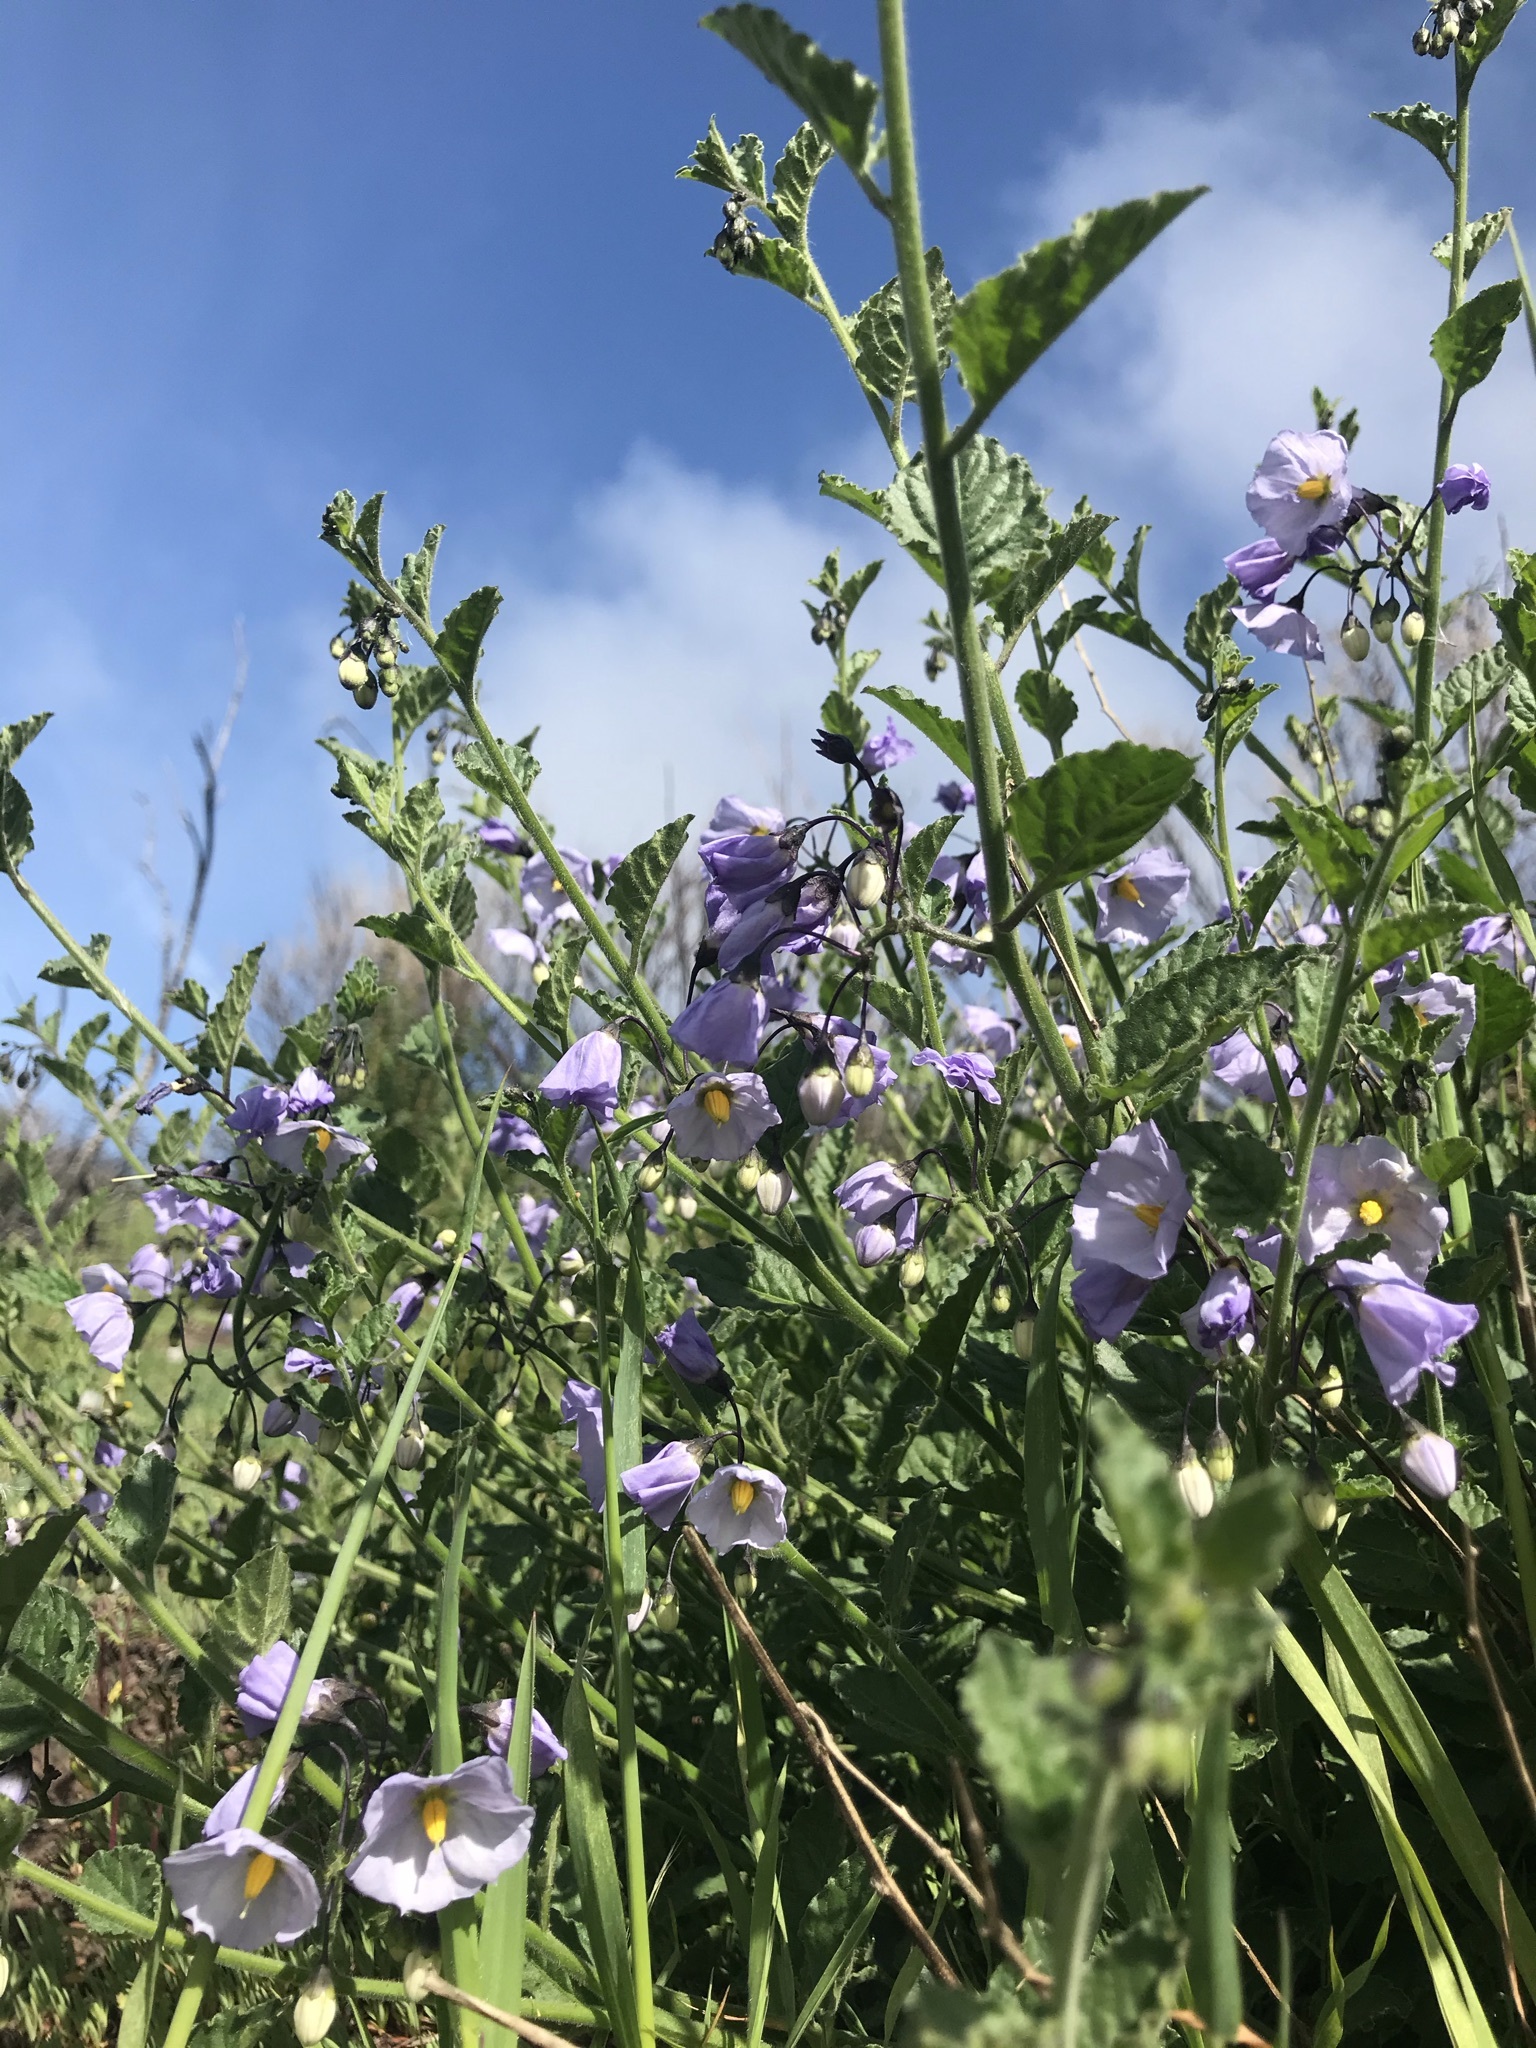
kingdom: Plantae
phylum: Tracheophyta
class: Magnoliopsida
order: Solanales
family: Solanaceae
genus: Solanum
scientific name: Solanum umbelliferum
